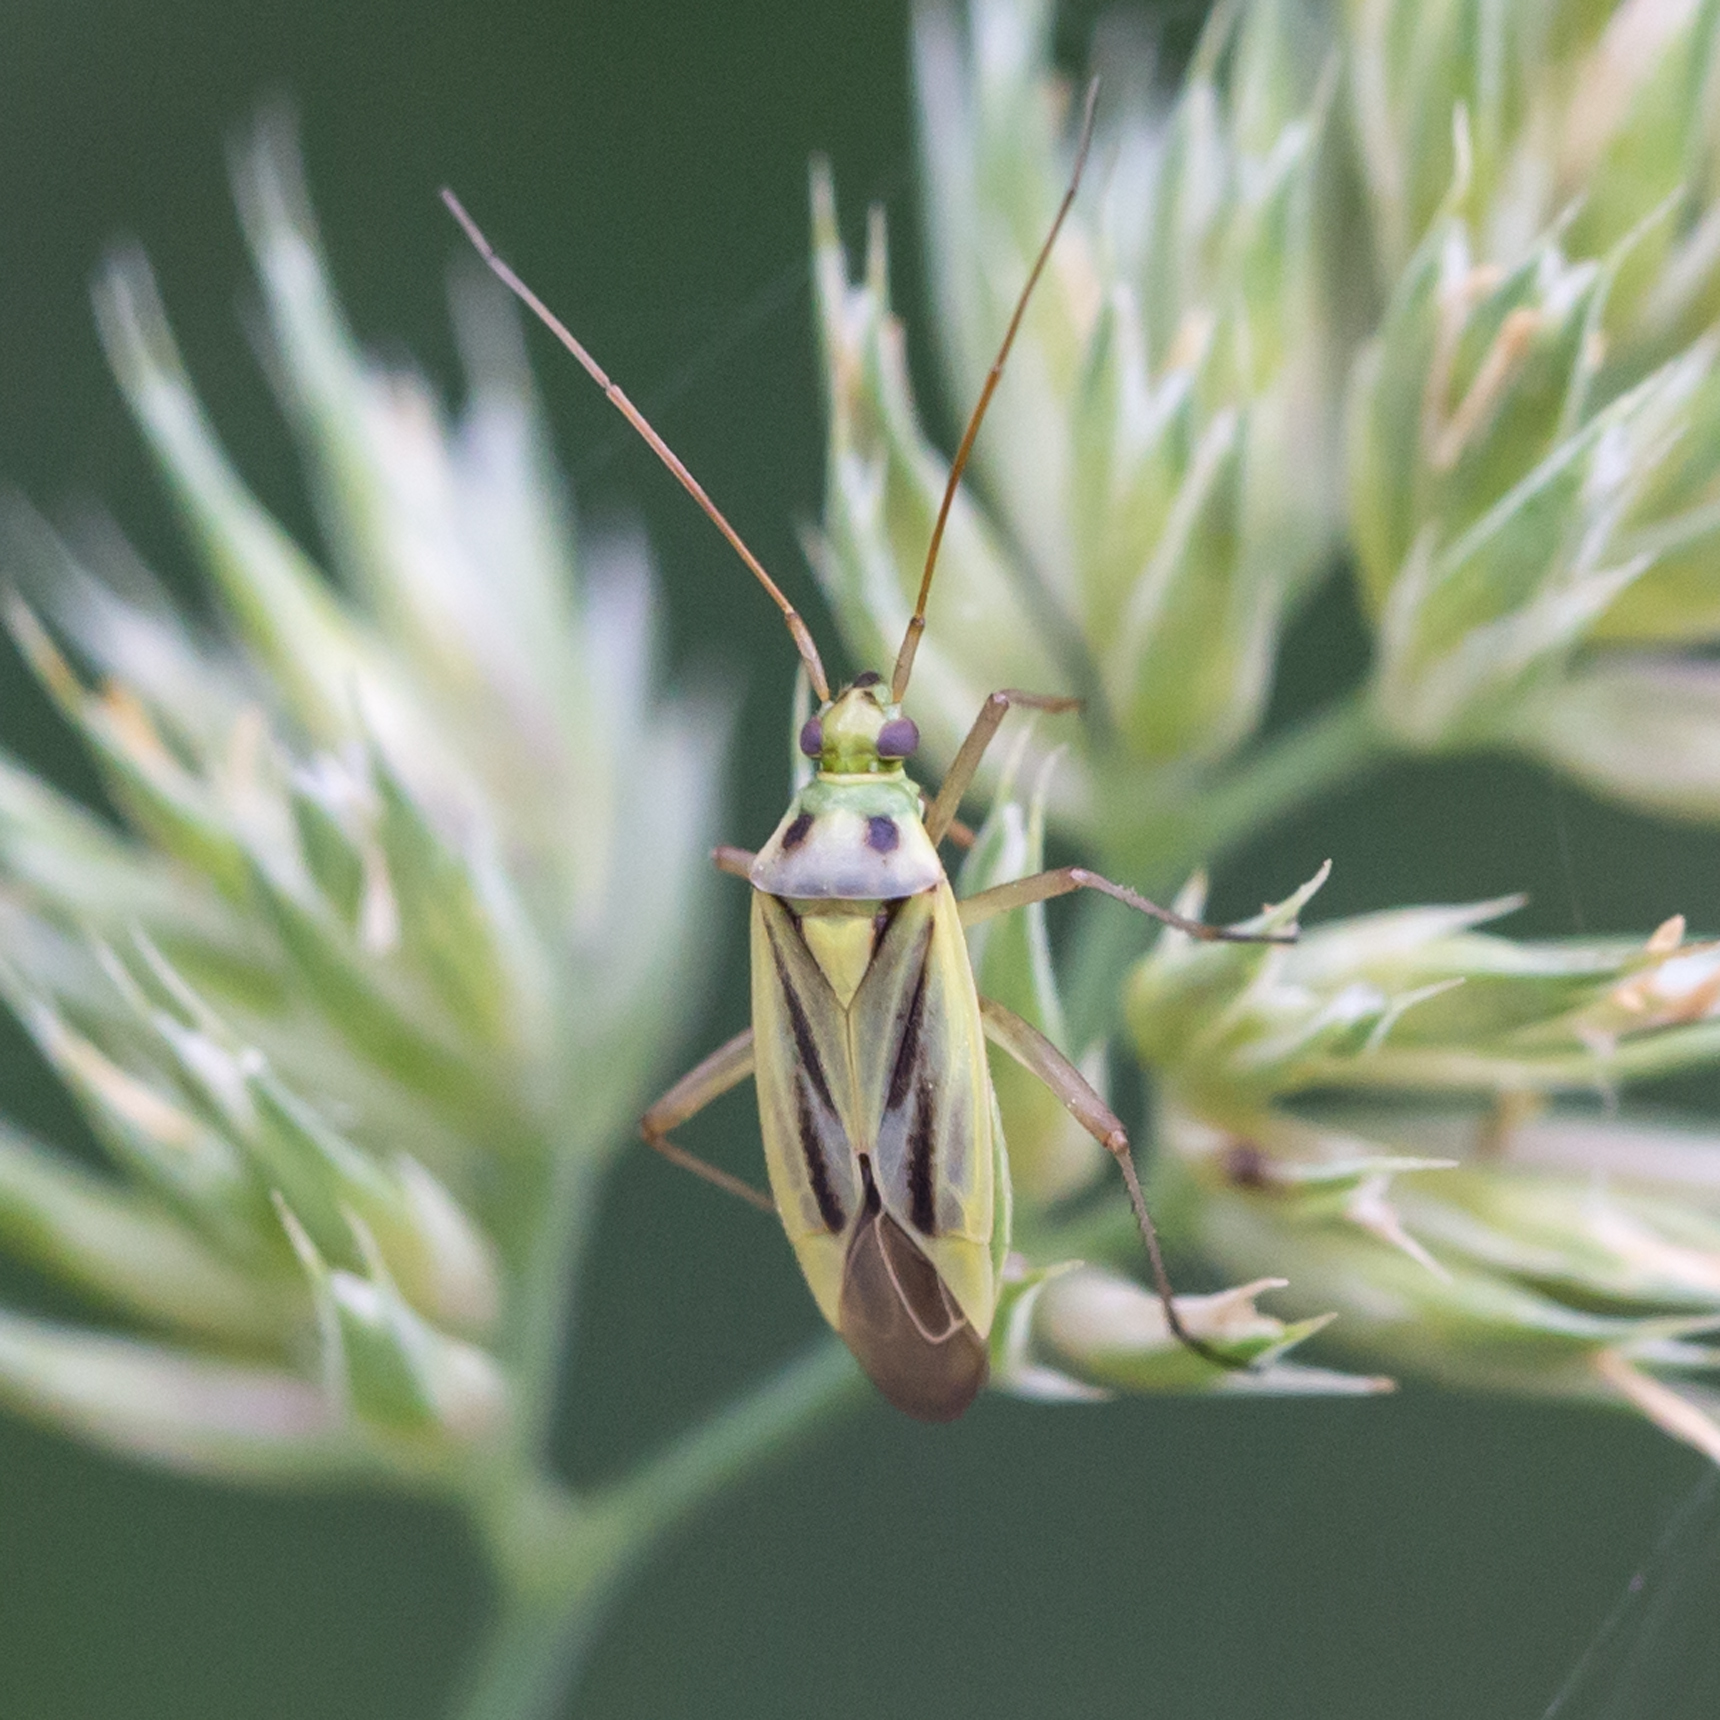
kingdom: Animalia
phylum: Arthropoda
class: Insecta
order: Hemiptera
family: Miridae
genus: Stenotus
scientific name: Stenotus binotatus
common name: Plant bug
